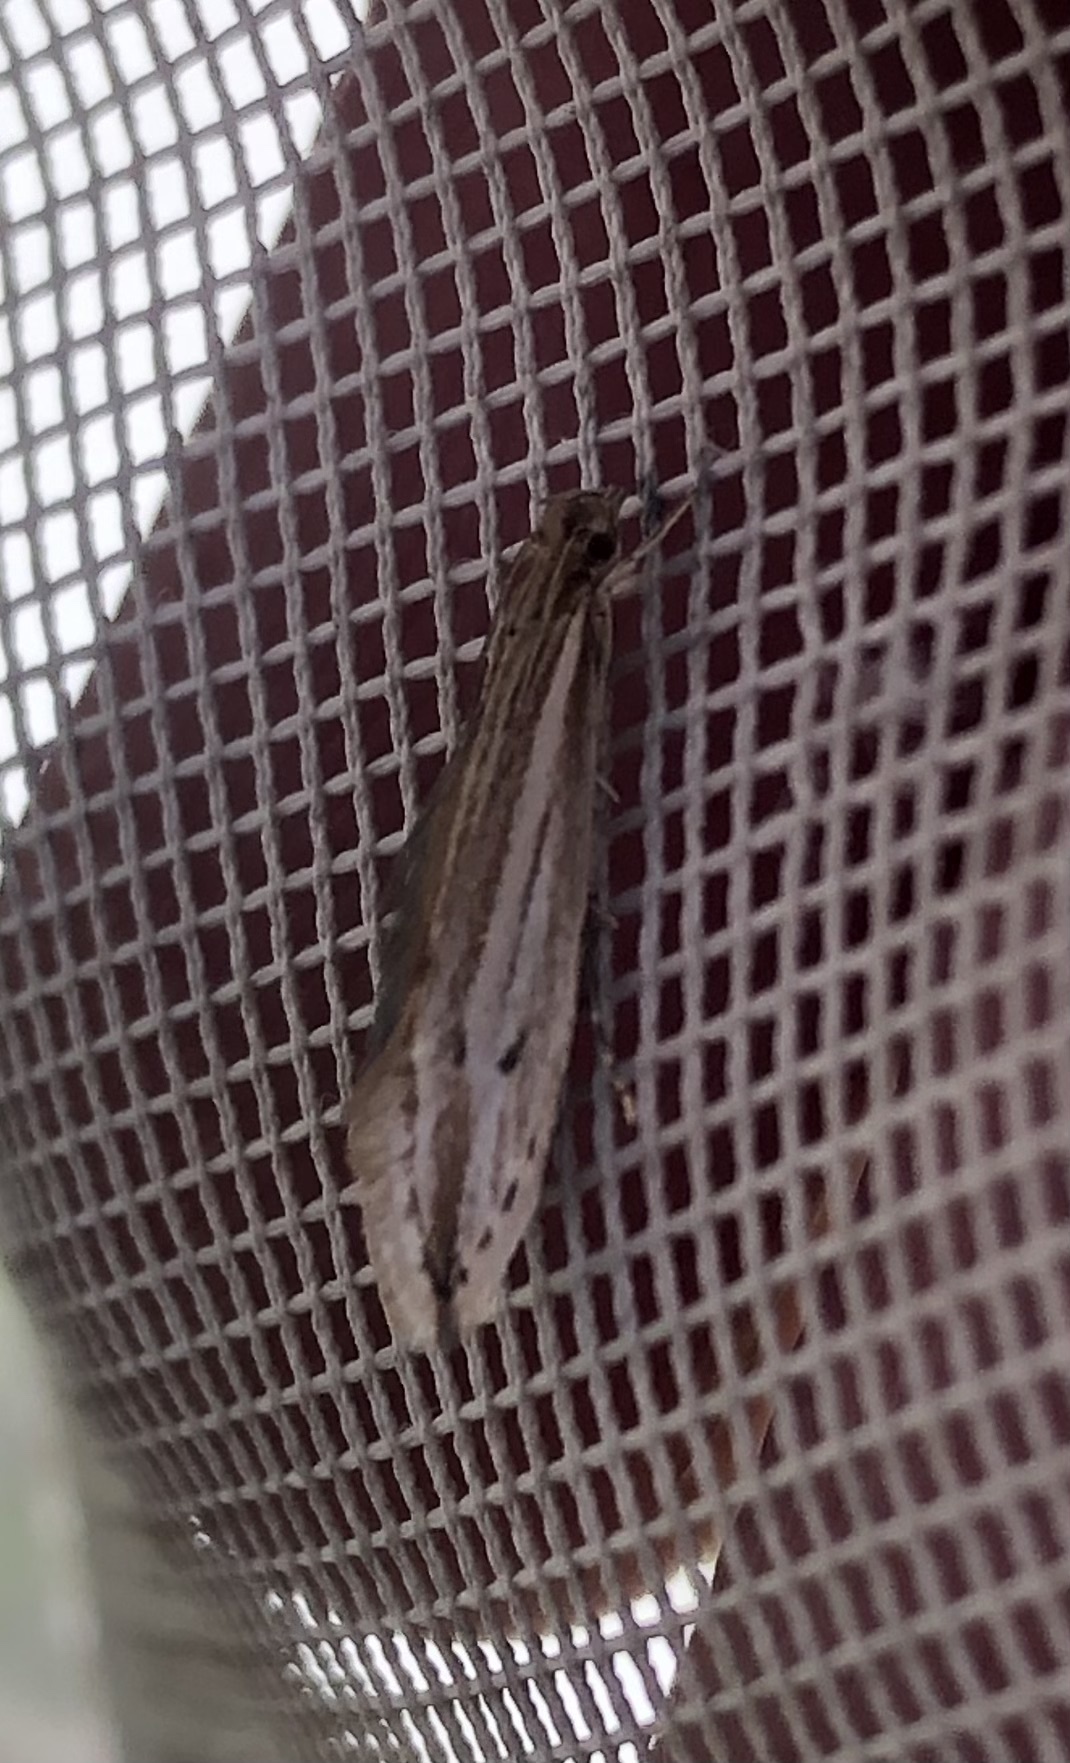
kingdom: Animalia
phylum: Arthropoda
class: Insecta
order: Lepidoptera
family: Tineidae
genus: Prothinodes
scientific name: Prothinodes grammocosma
